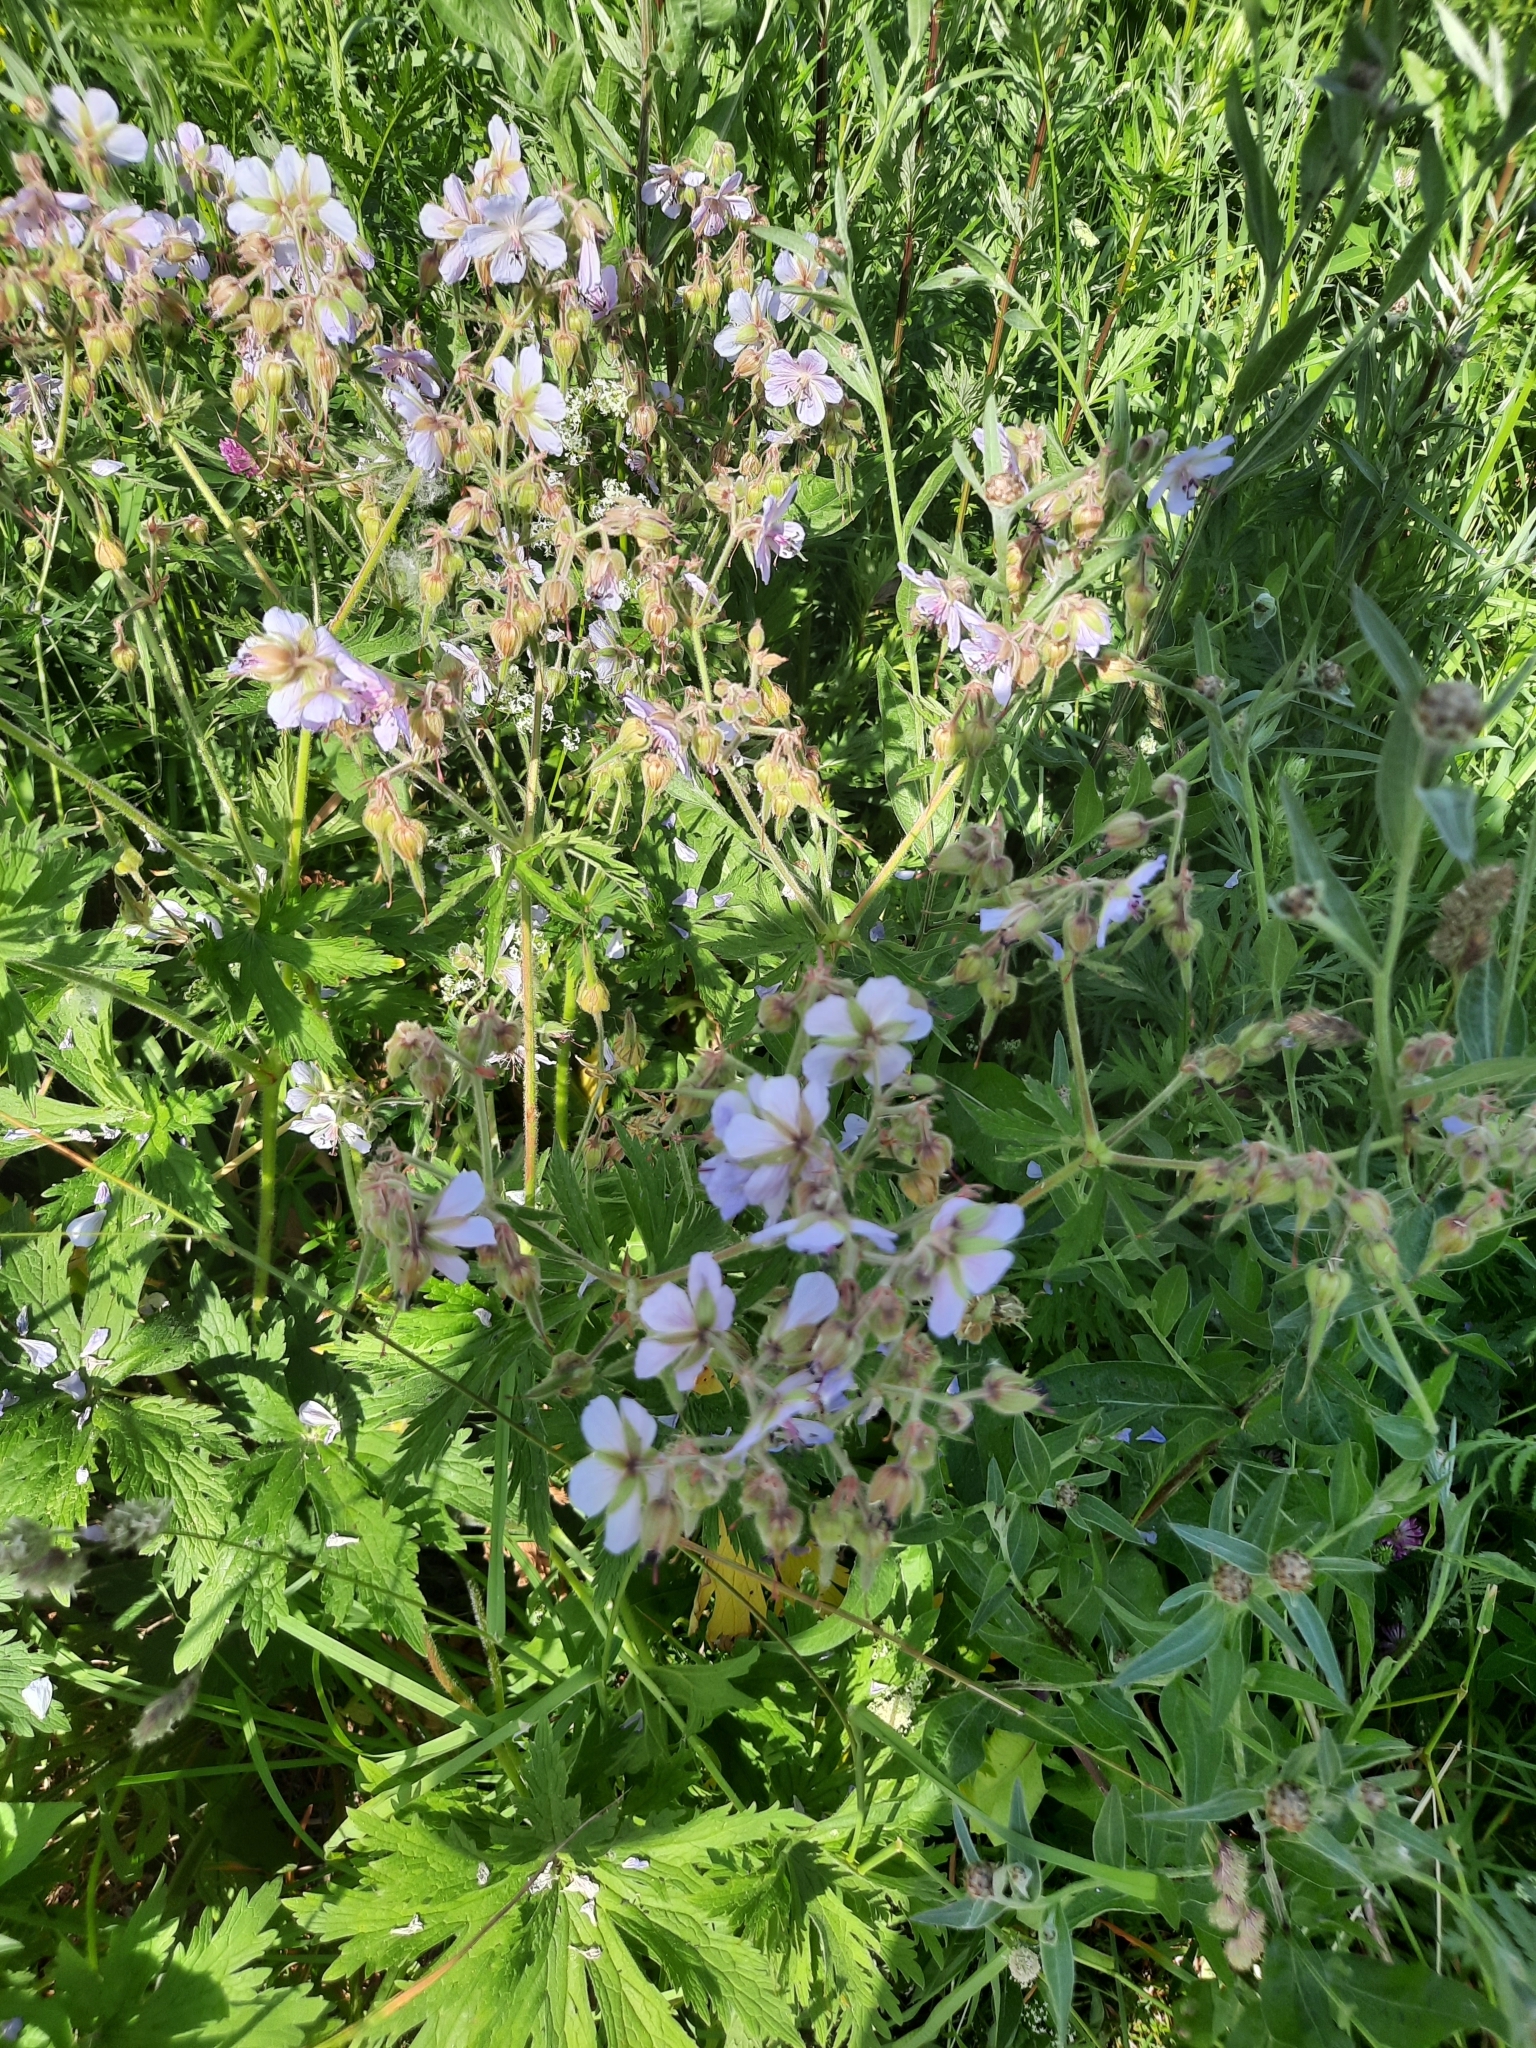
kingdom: Plantae
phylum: Tracheophyta
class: Magnoliopsida
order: Geraniales
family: Geraniaceae
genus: Geranium
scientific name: Geranium pratense
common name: Meadow crane's-bill
